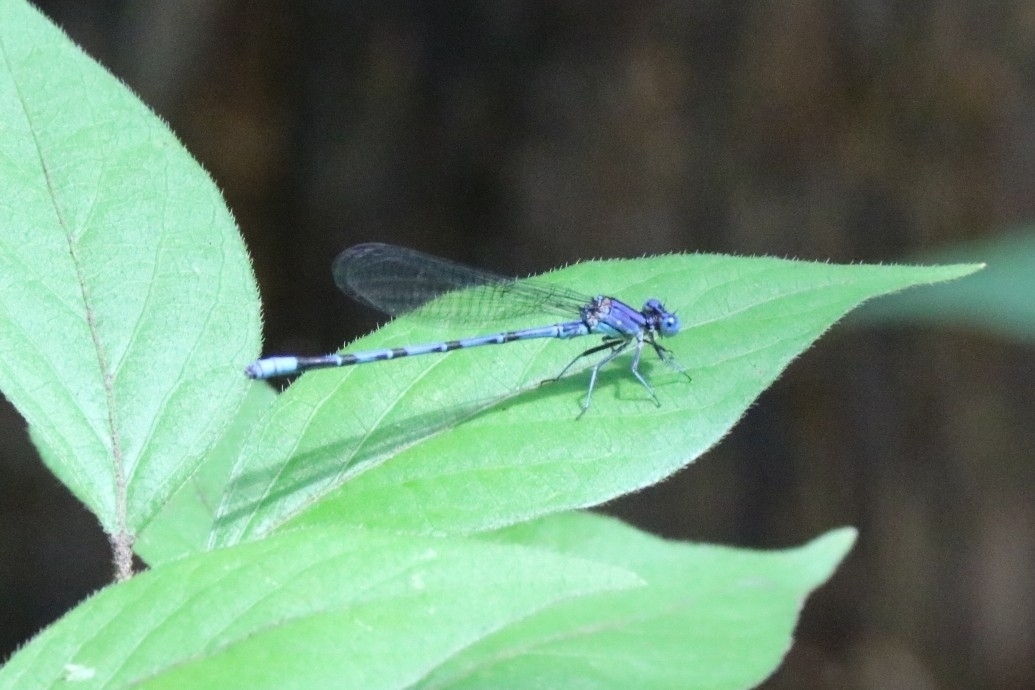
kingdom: Animalia
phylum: Arthropoda
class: Insecta
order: Odonata
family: Coenagrionidae
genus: Argia
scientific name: Argia funebris
